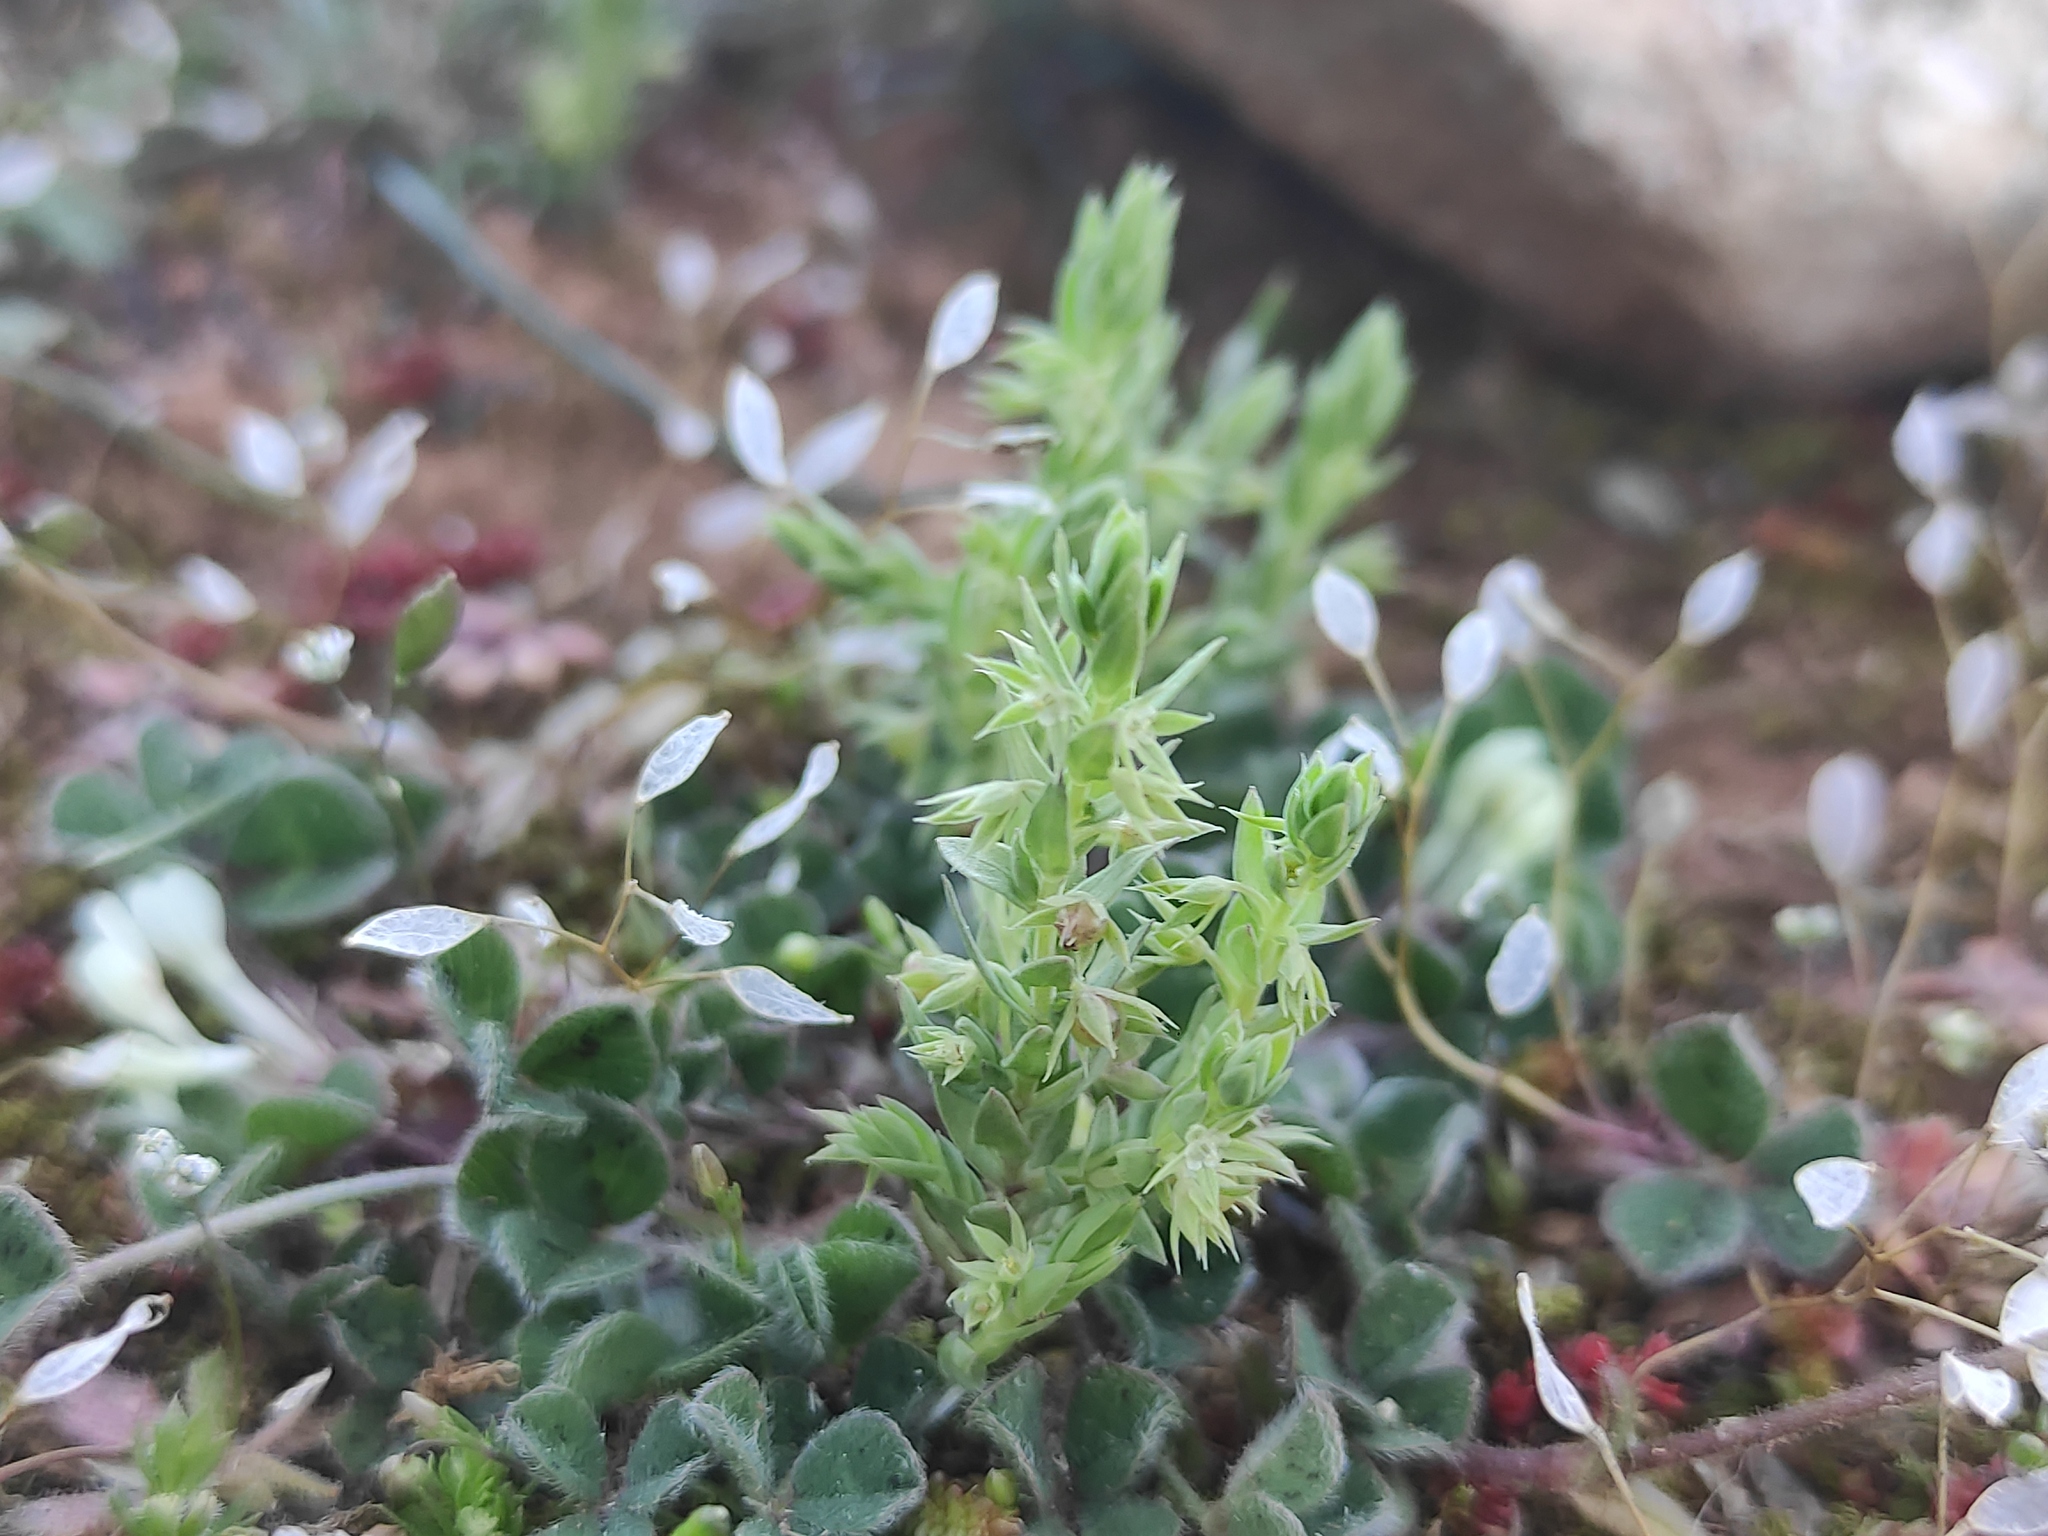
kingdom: Plantae
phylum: Tracheophyta
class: Magnoliopsida
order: Ericales
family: Primulaceae
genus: Lysimachia
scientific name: Lysimachia linum-stellatum
